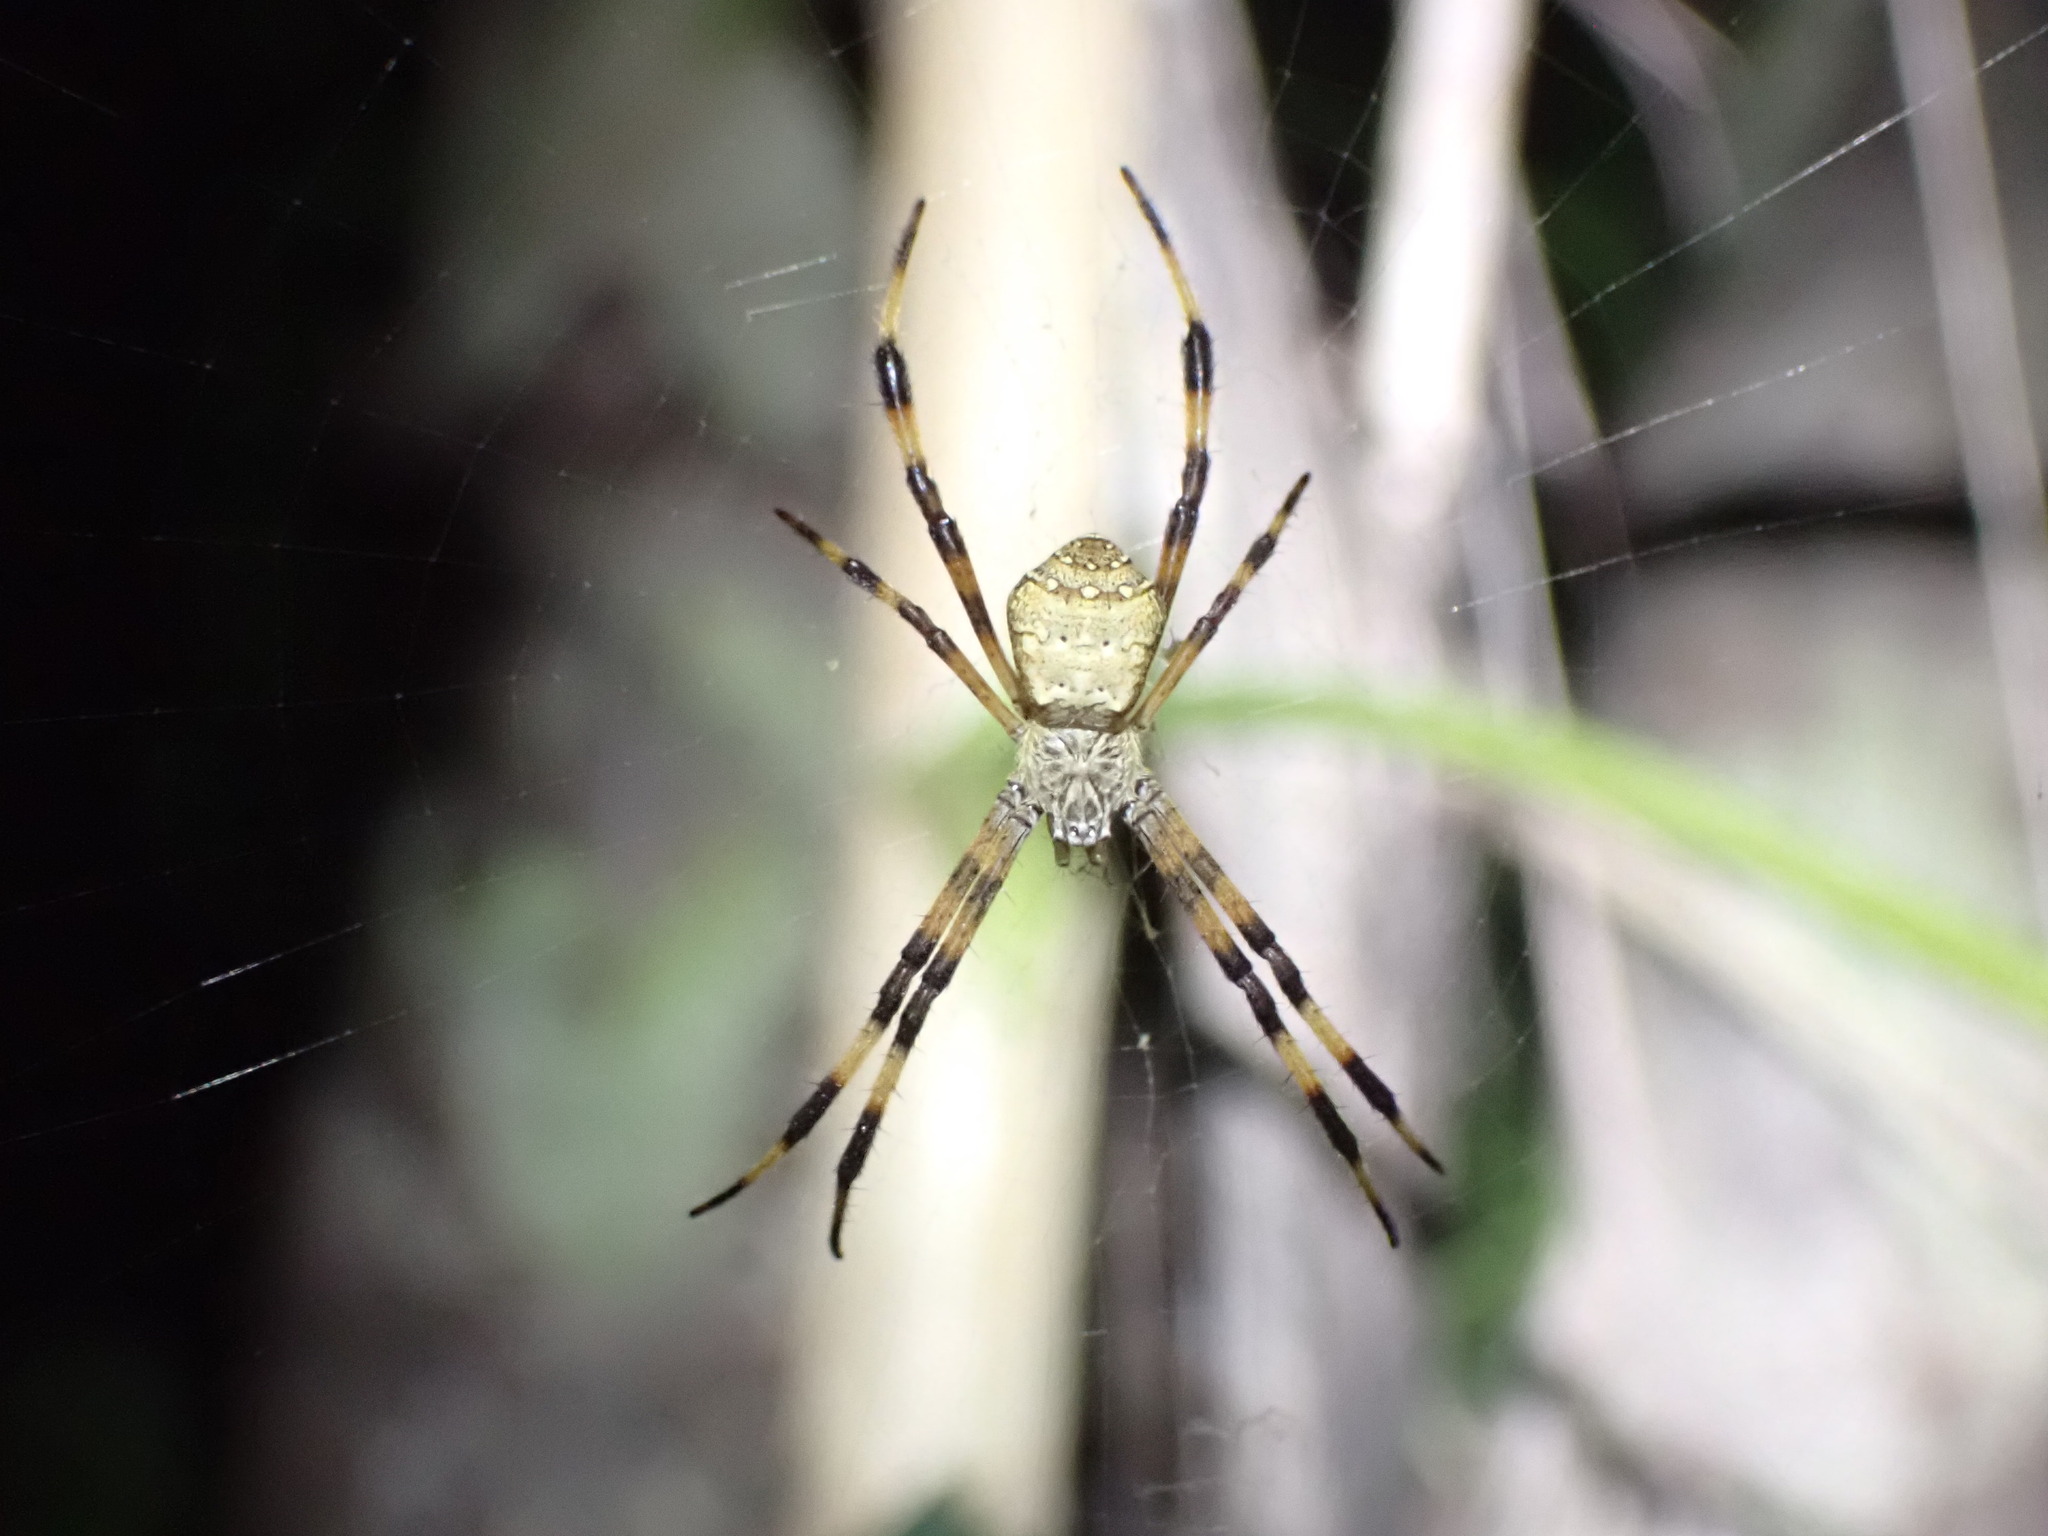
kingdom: Animalia
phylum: Arthropoda
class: Arachnida
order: Araneae
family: Araneidae
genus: Argiope
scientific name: Argiope pentagona
